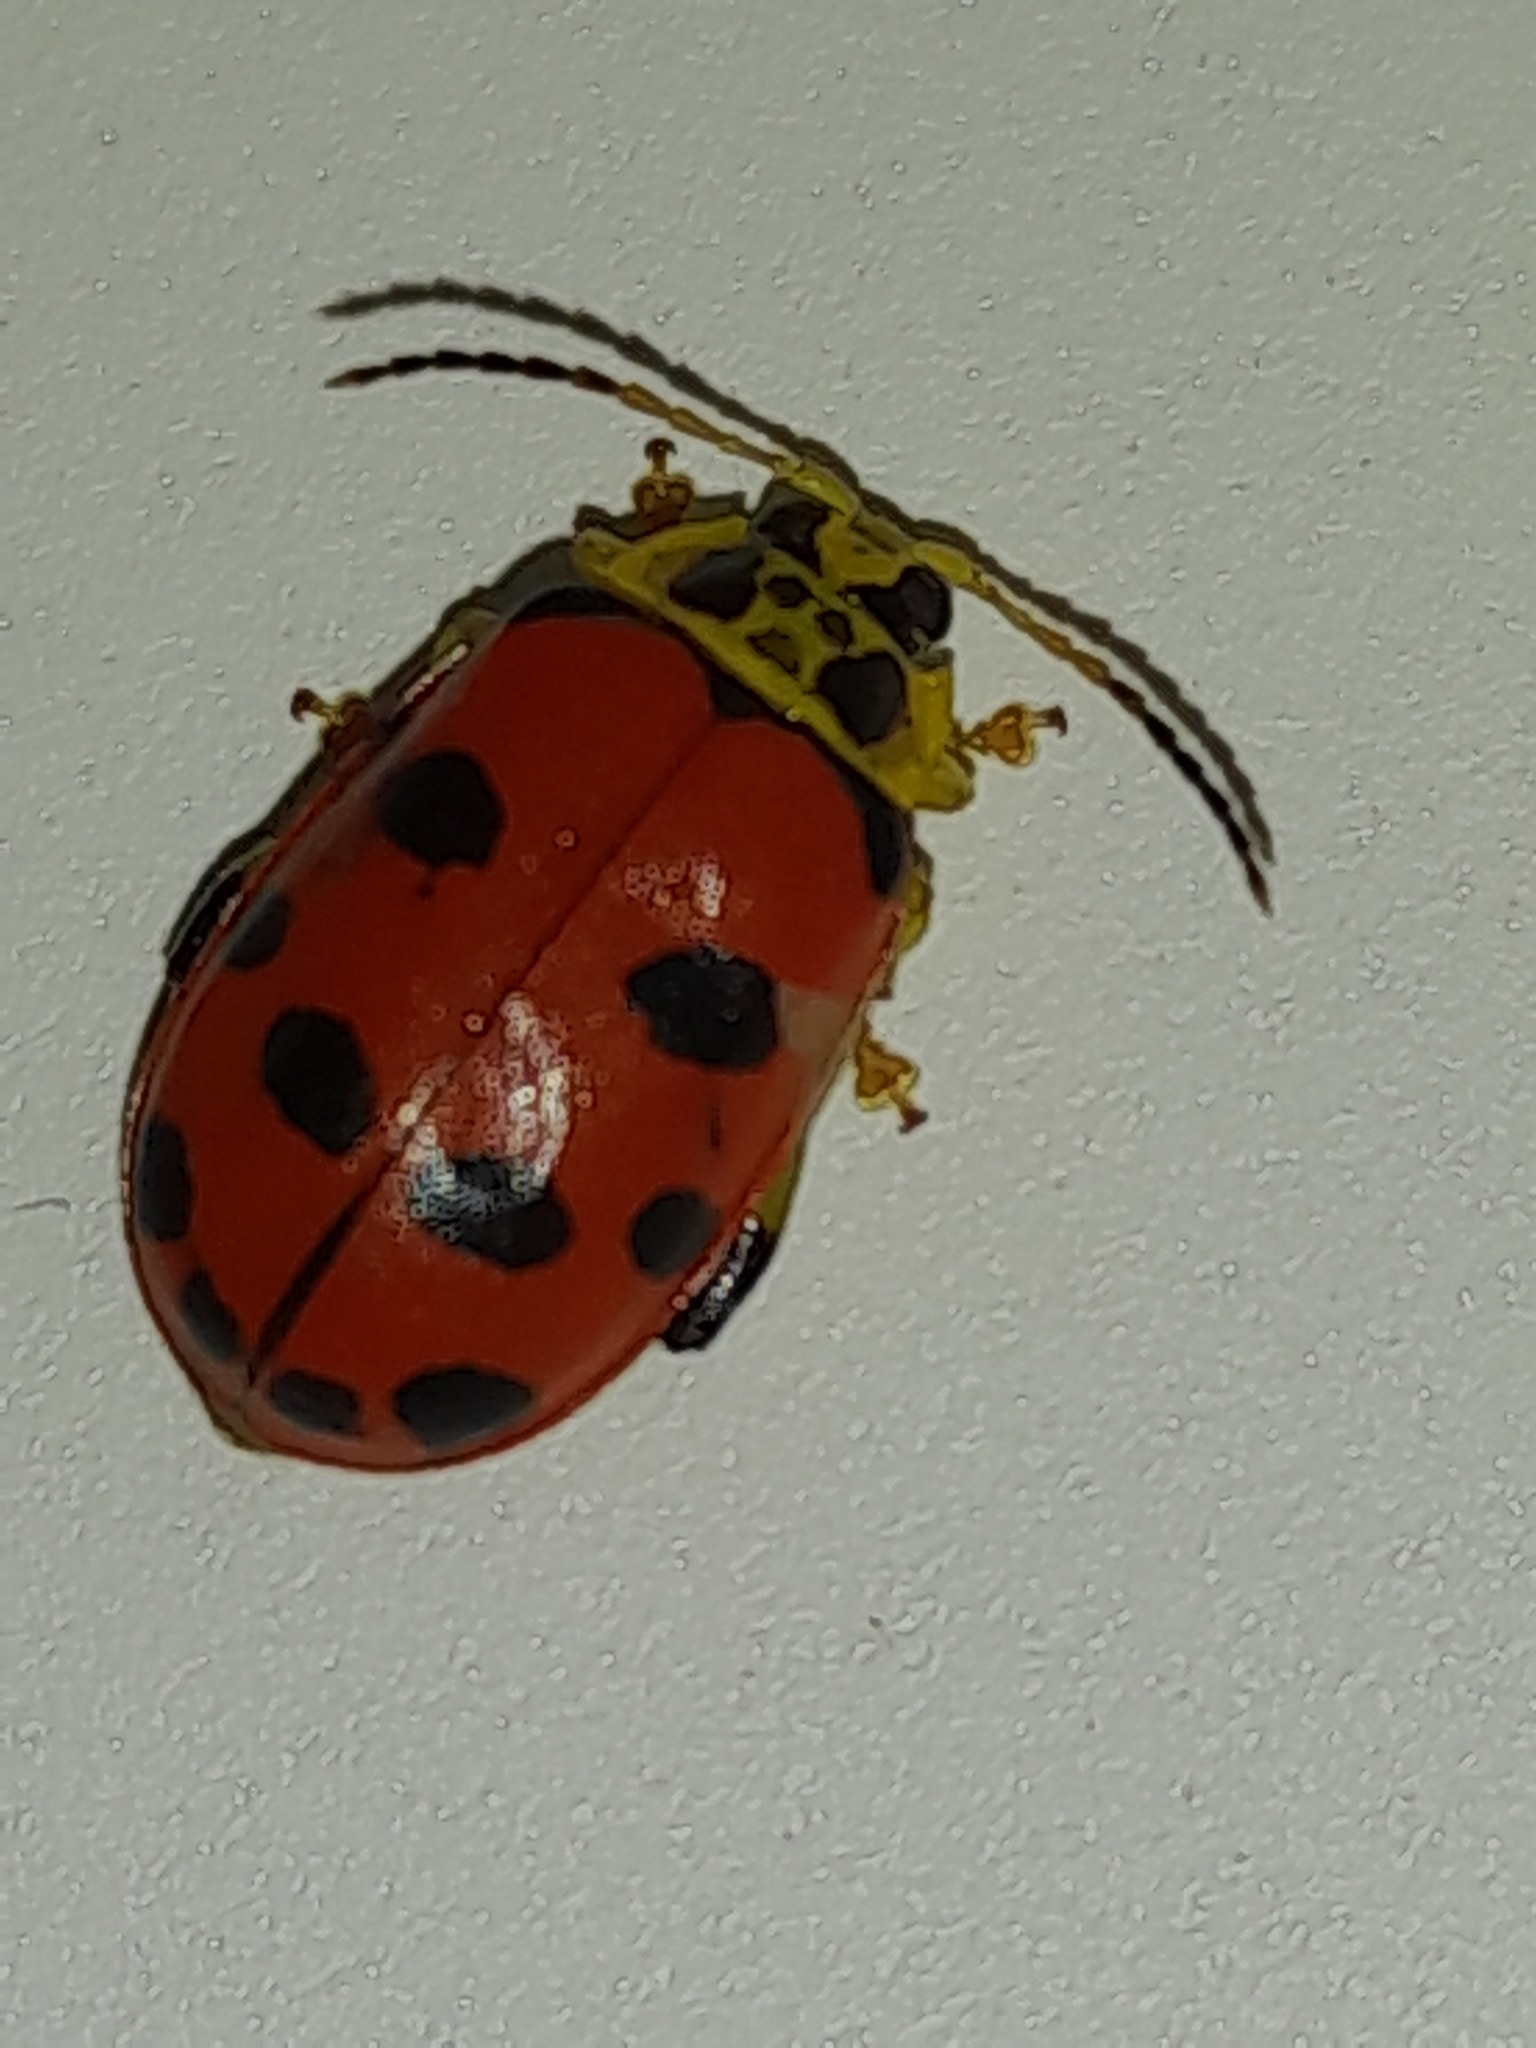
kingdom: Animalia
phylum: Arthropoda
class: Insecta
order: Coleoptera
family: Chrysomelidae
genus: Alagoasa
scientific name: Alagoasa
